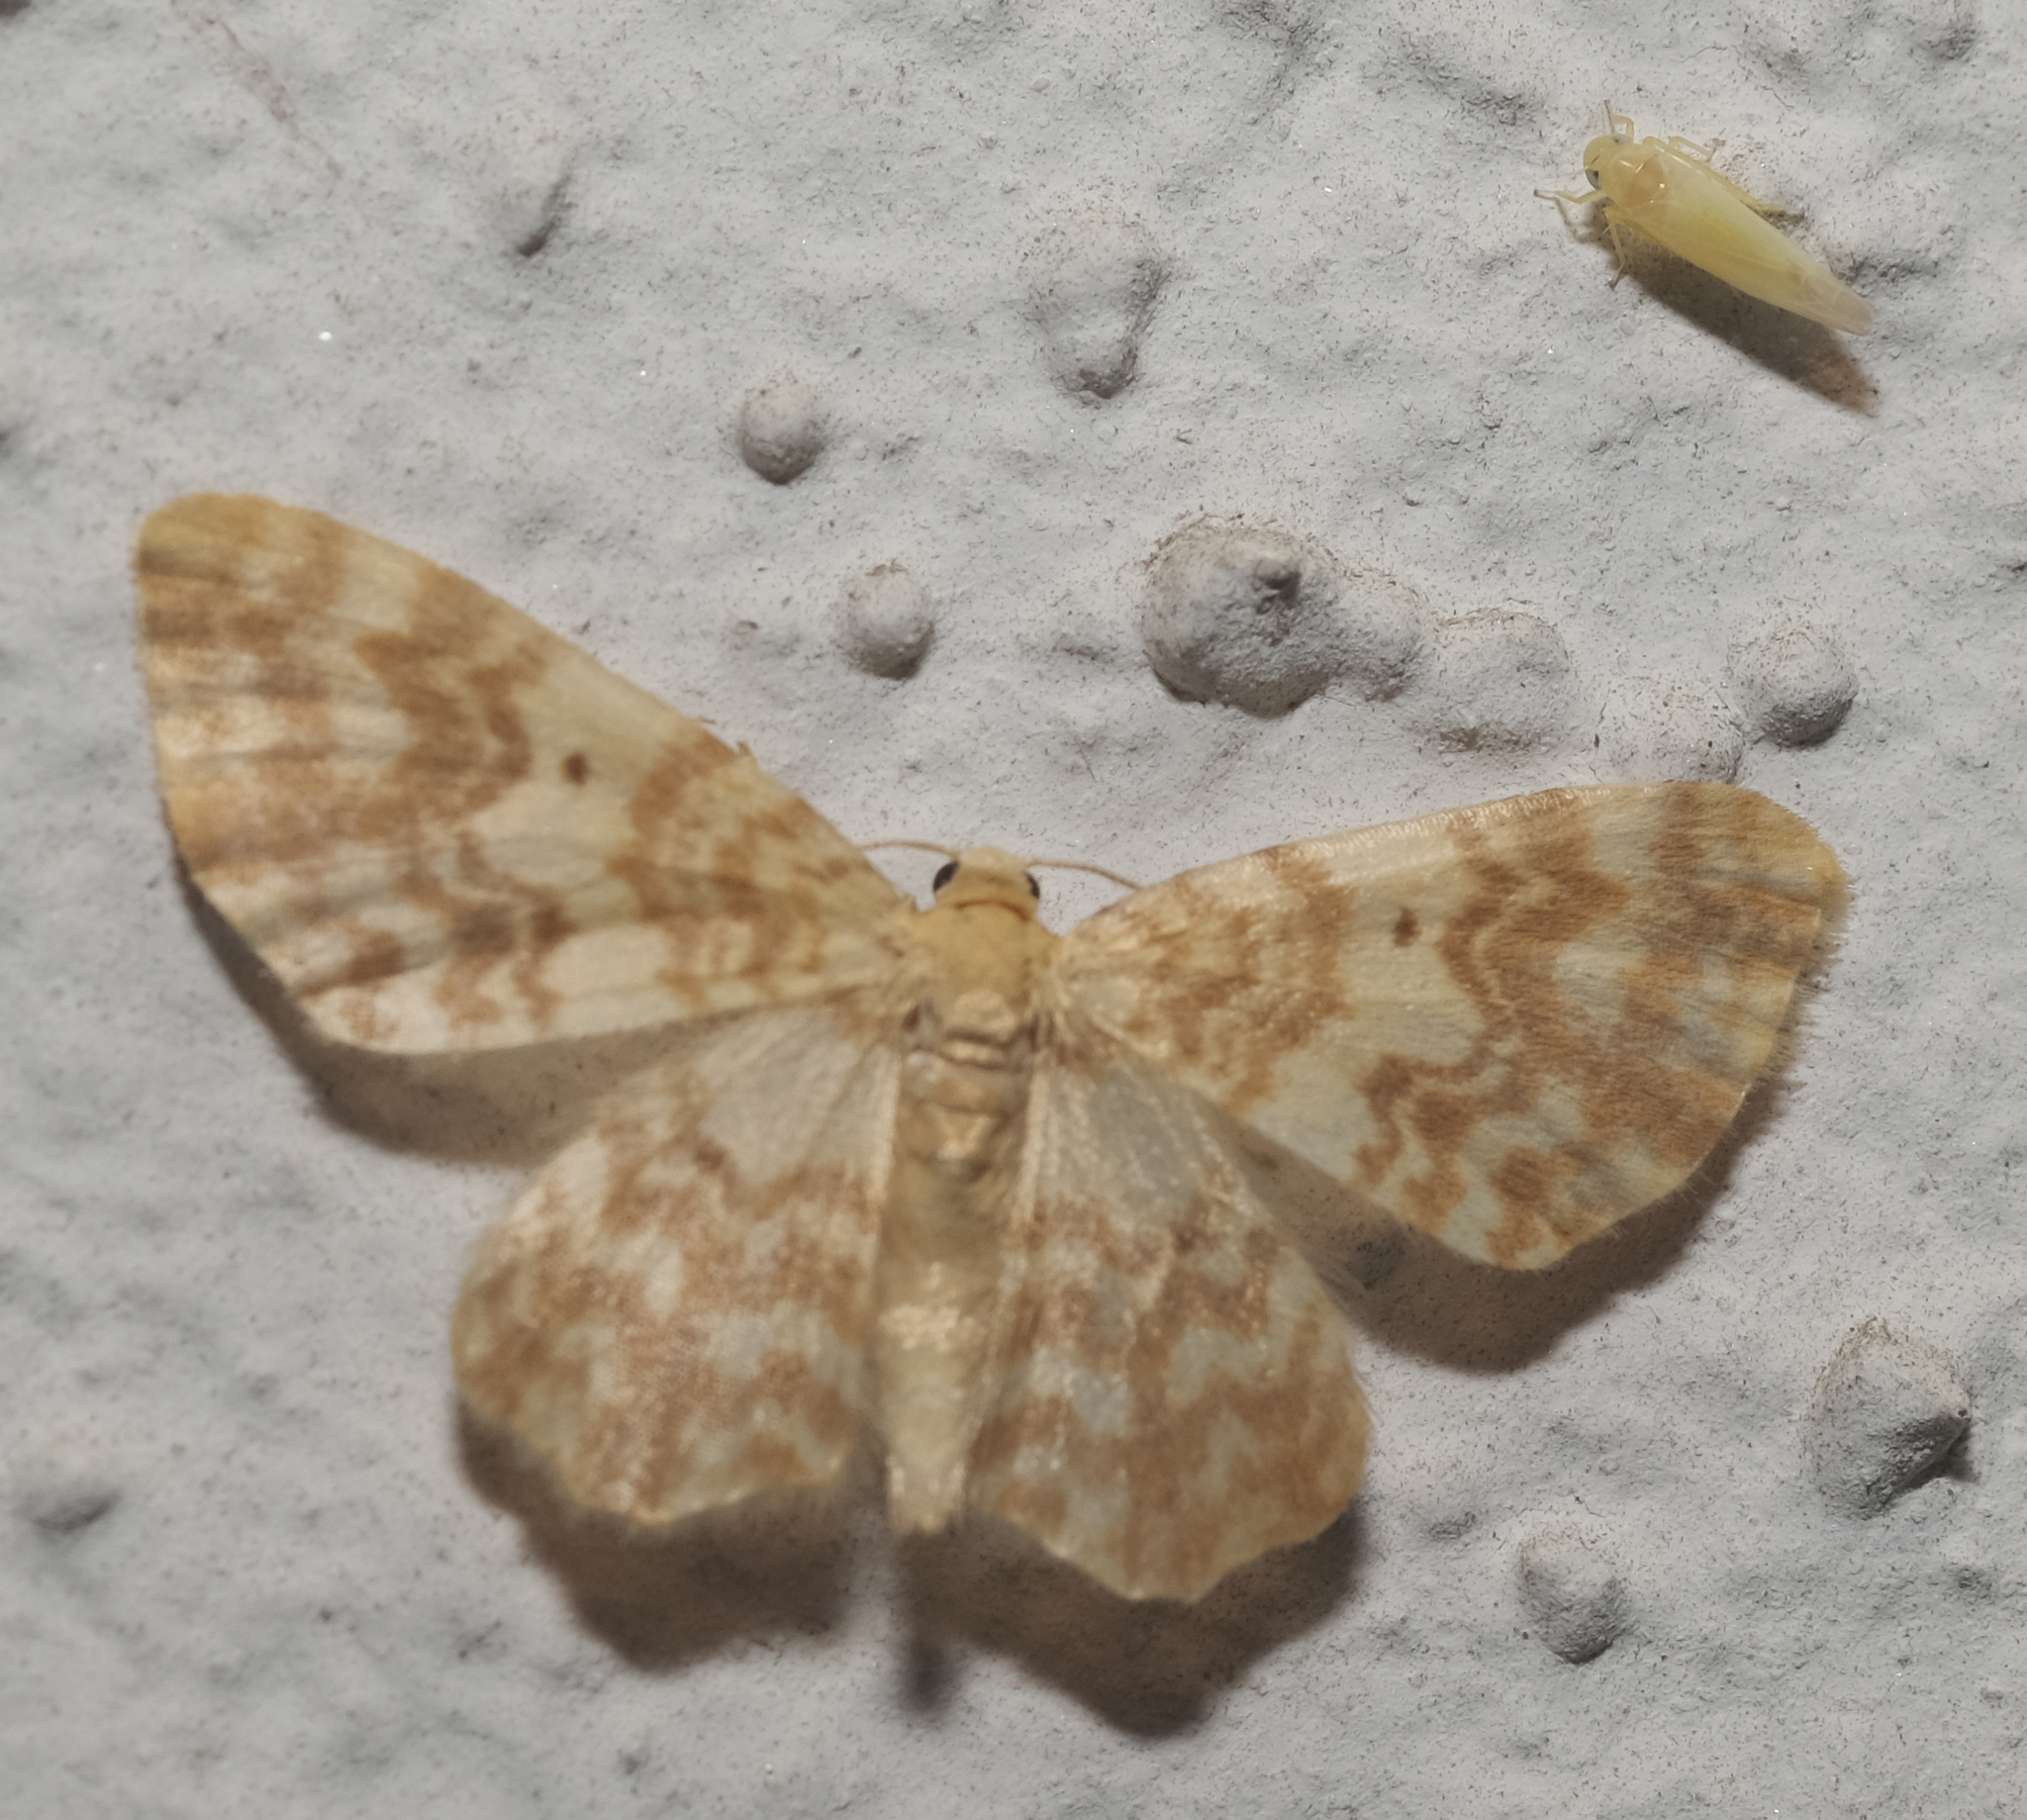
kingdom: Animalia
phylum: Arthropoda
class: Insecta
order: Lepidoptera
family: Geometridae
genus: Hydrelia
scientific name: Hydrelia flammeolaria
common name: Small yellow wave
